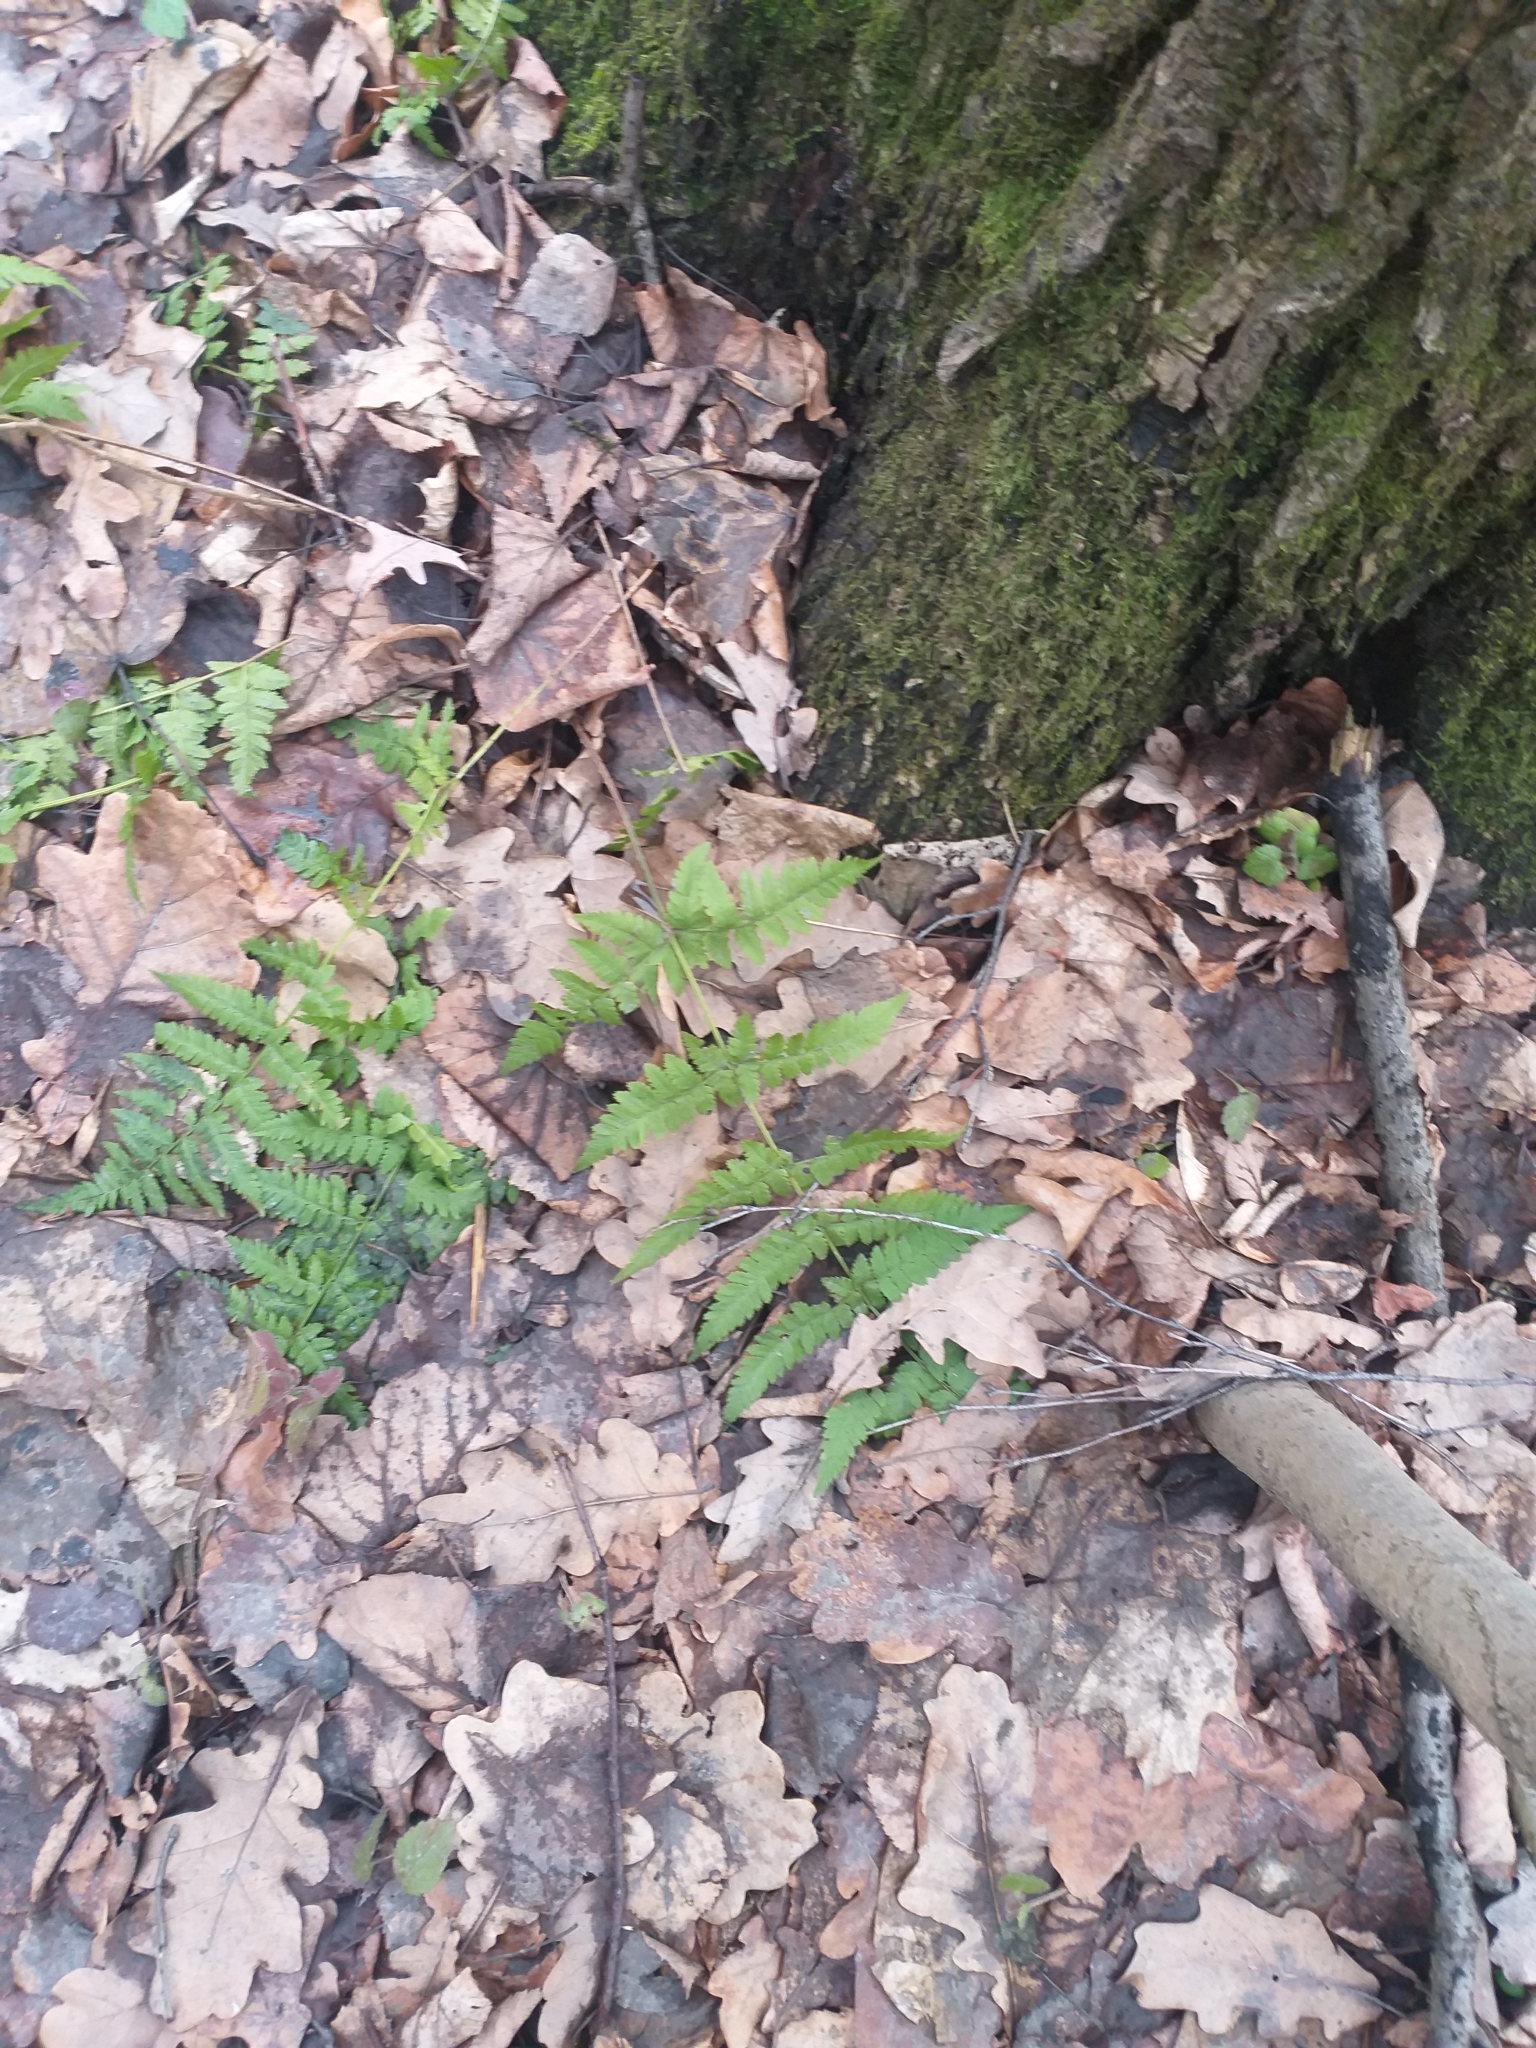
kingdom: Plantae
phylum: Tracheophyta
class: Polypodiopsida
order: Polypodiales
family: Dryopteridaceae
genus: Dryopteris
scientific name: Dryopteris carthusiana
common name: Narrow buckler-fern
